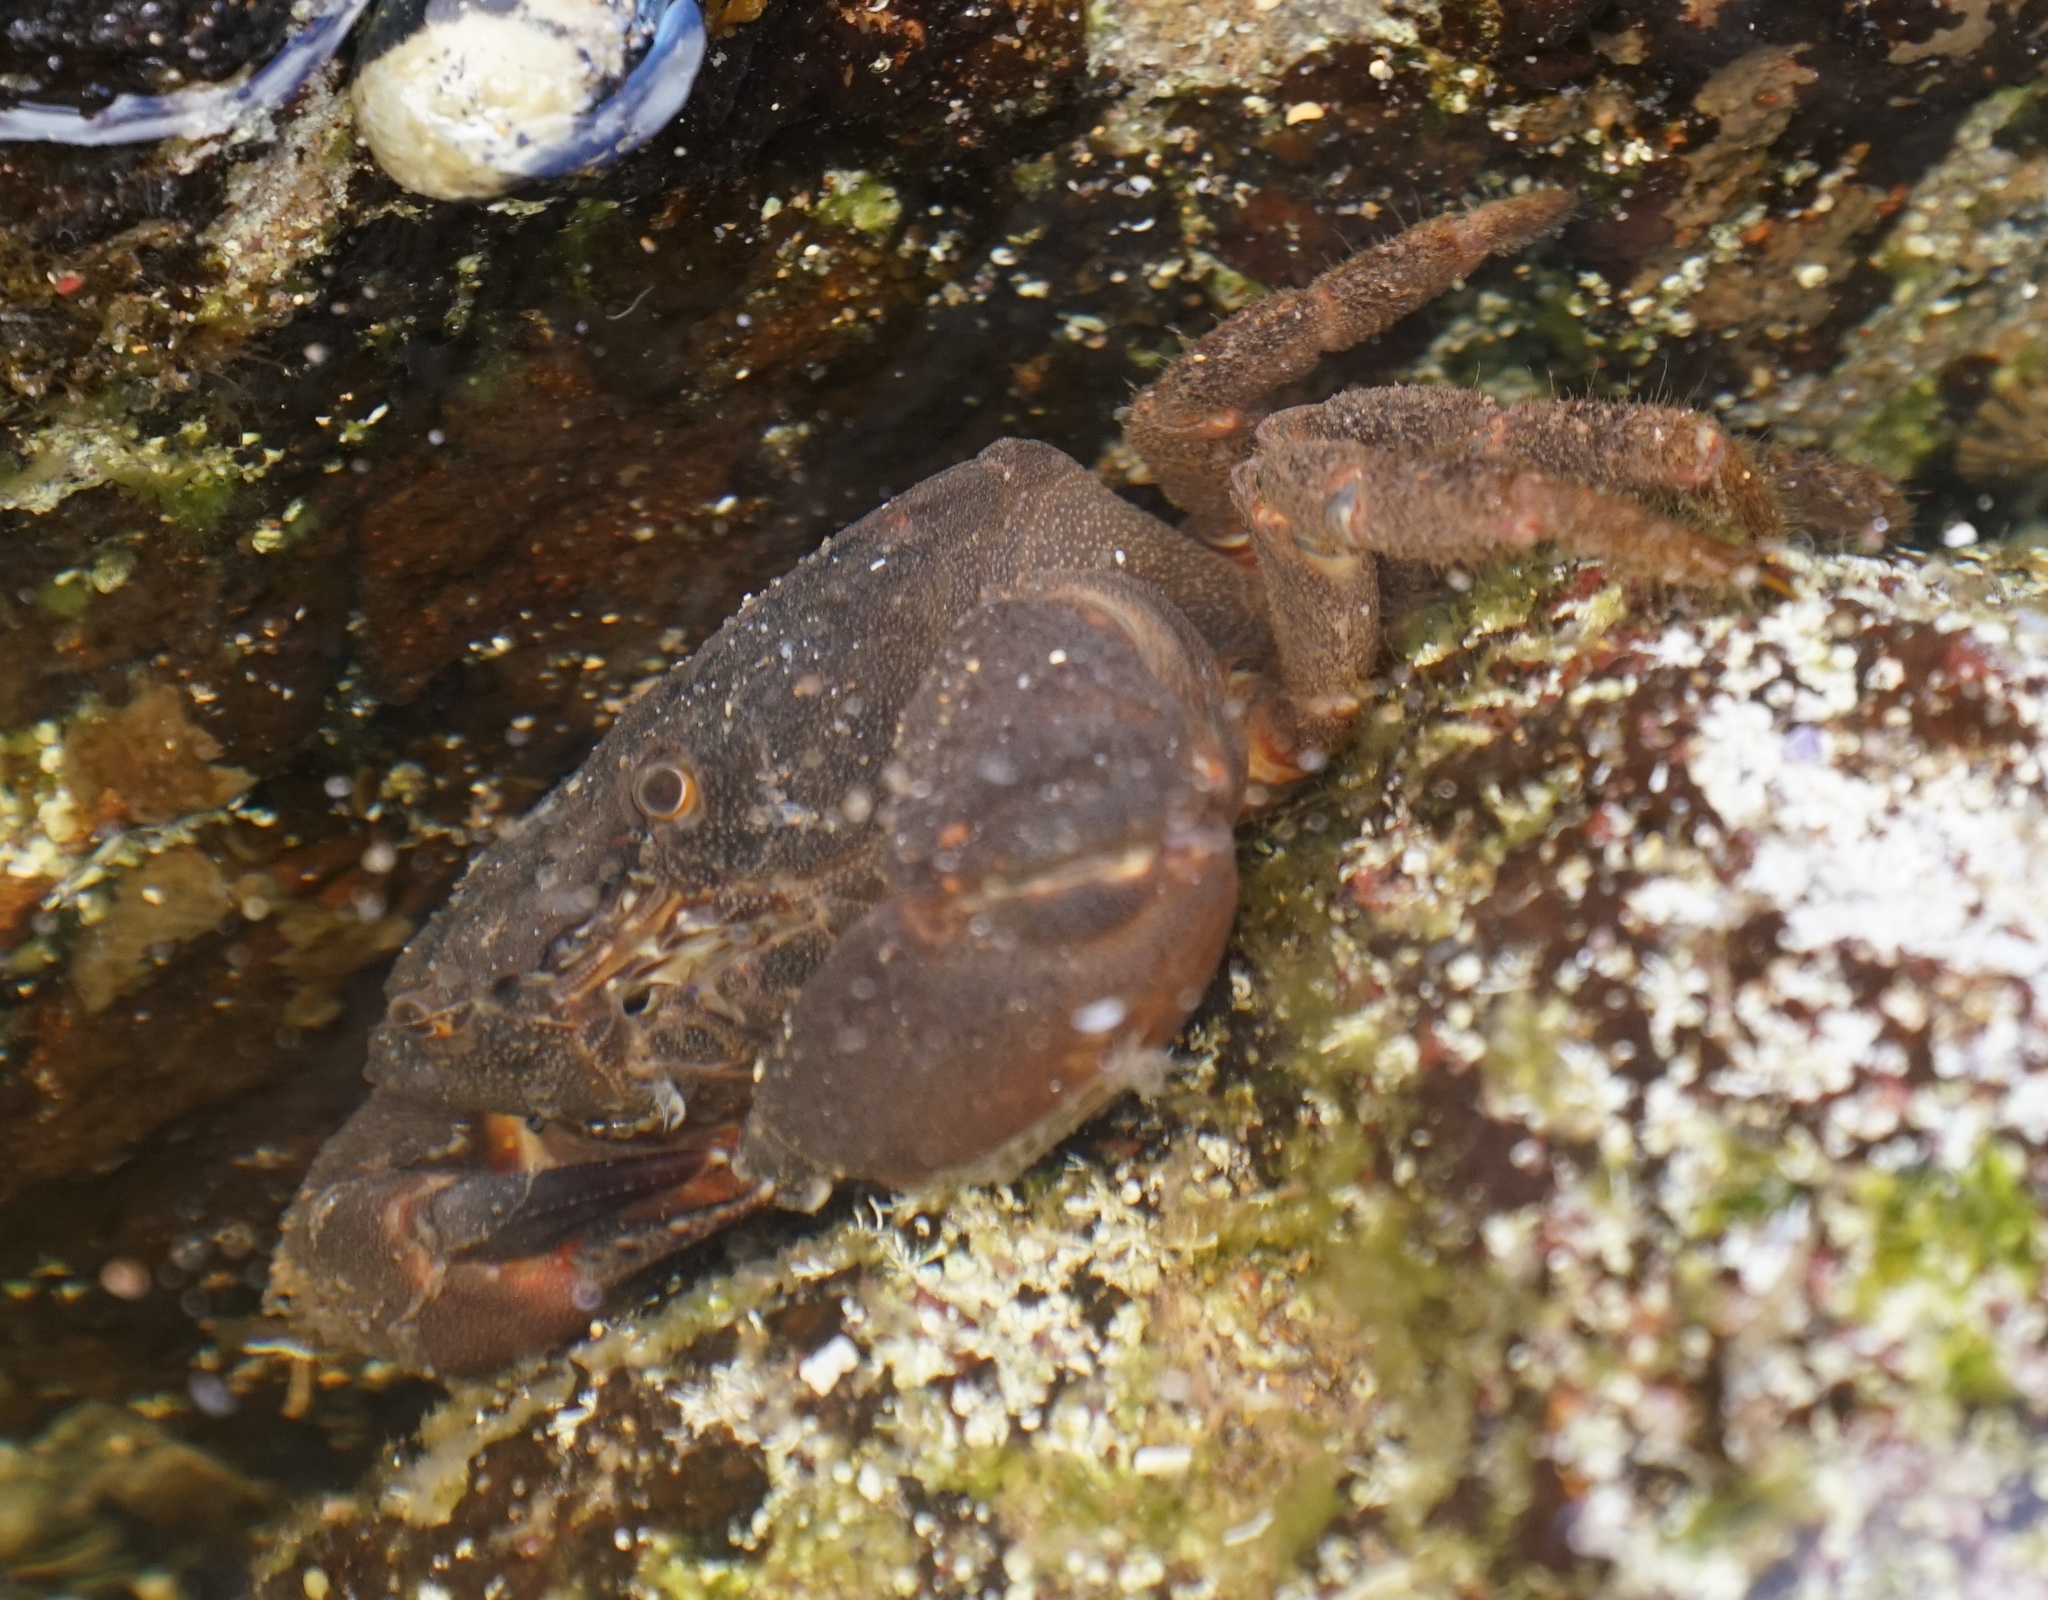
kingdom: Animalia
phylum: Arthropoda
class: Malacostraca
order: Decapoda
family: Oziidae
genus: Ozius
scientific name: Ozius truncatus
